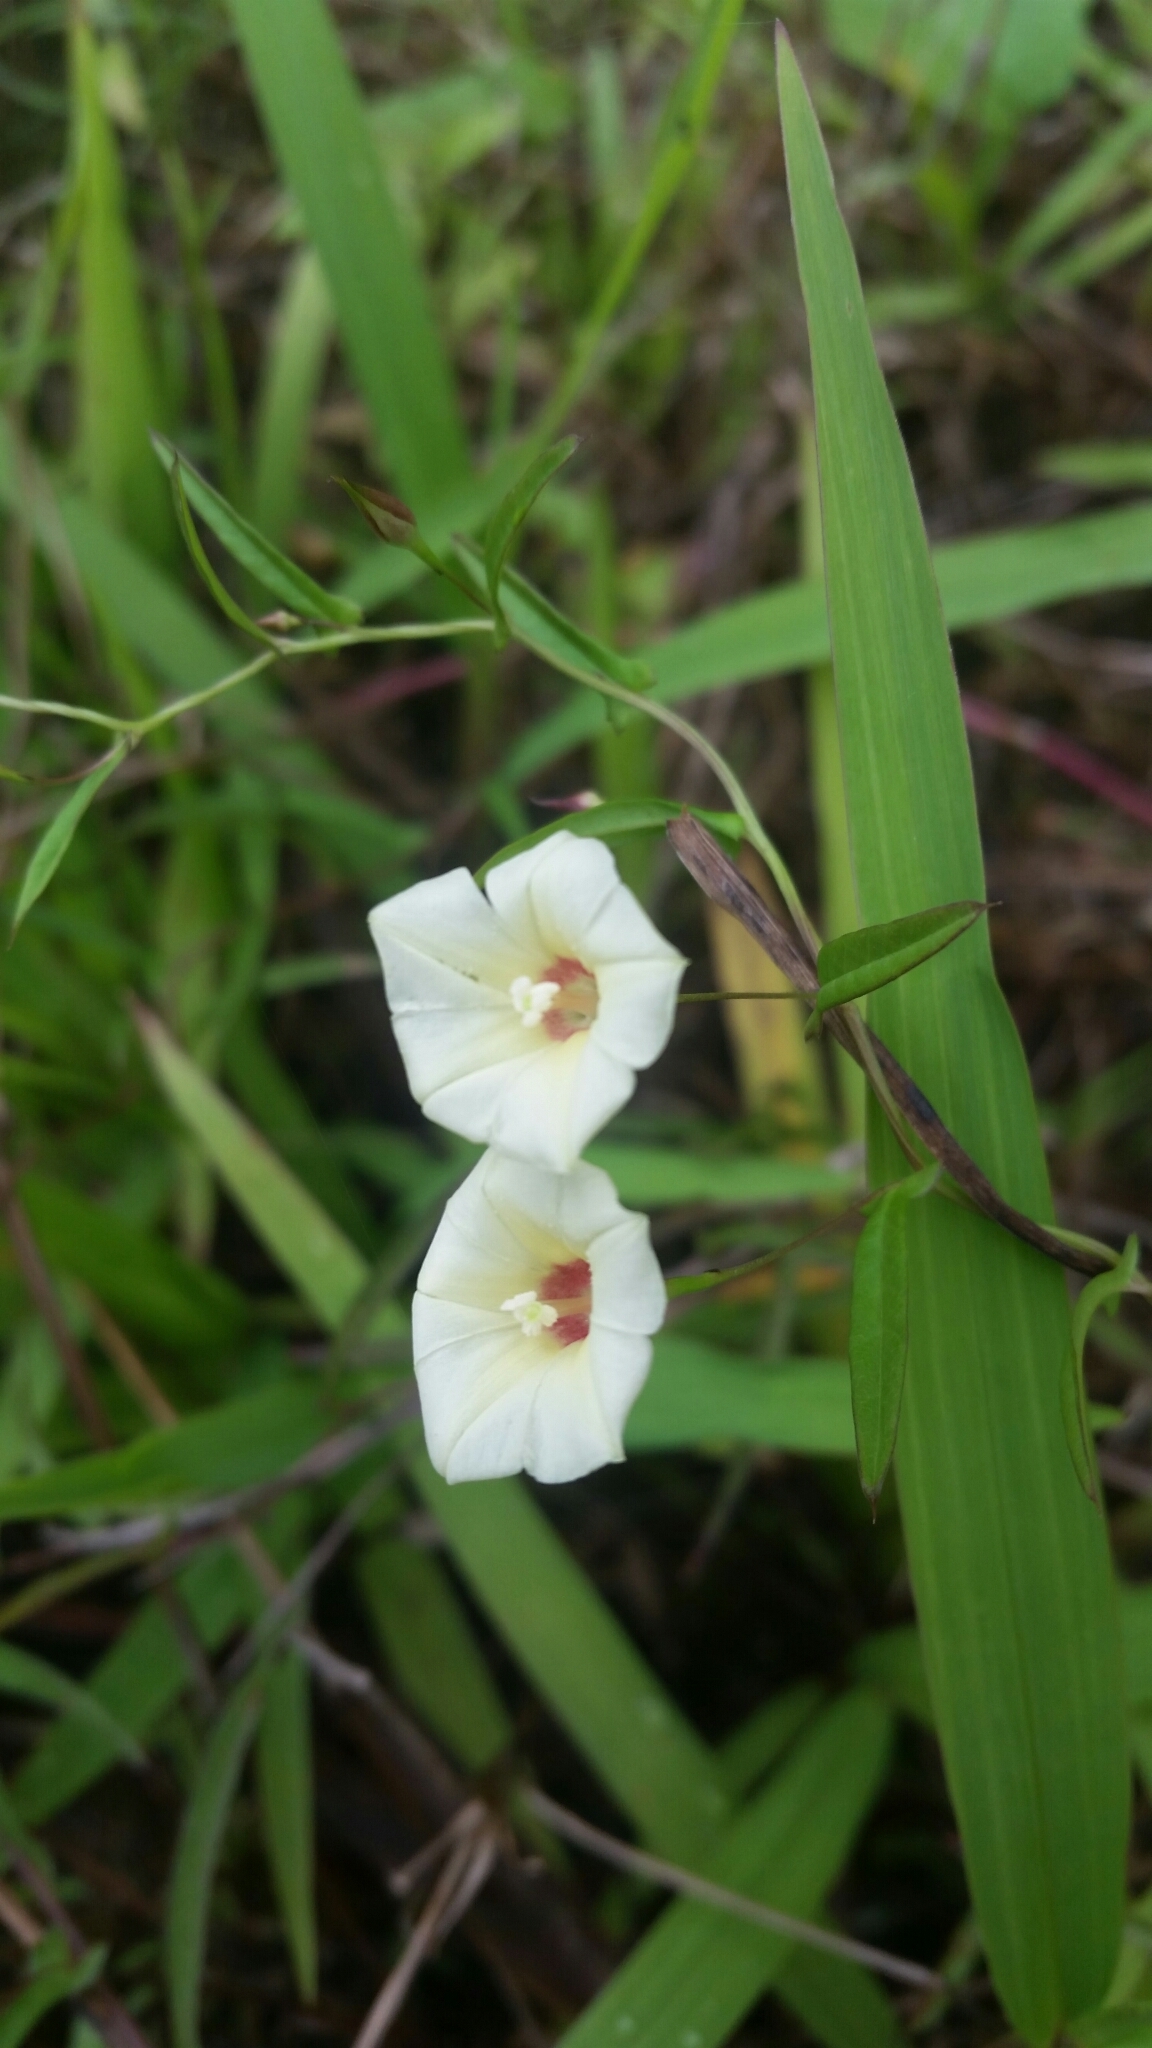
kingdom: Plantae
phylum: Tracheophyta
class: Magnoliopsida
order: Solanales
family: Convolvulaceae
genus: Xenostegia
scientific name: Xenostegia tridentata
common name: African morningvine
